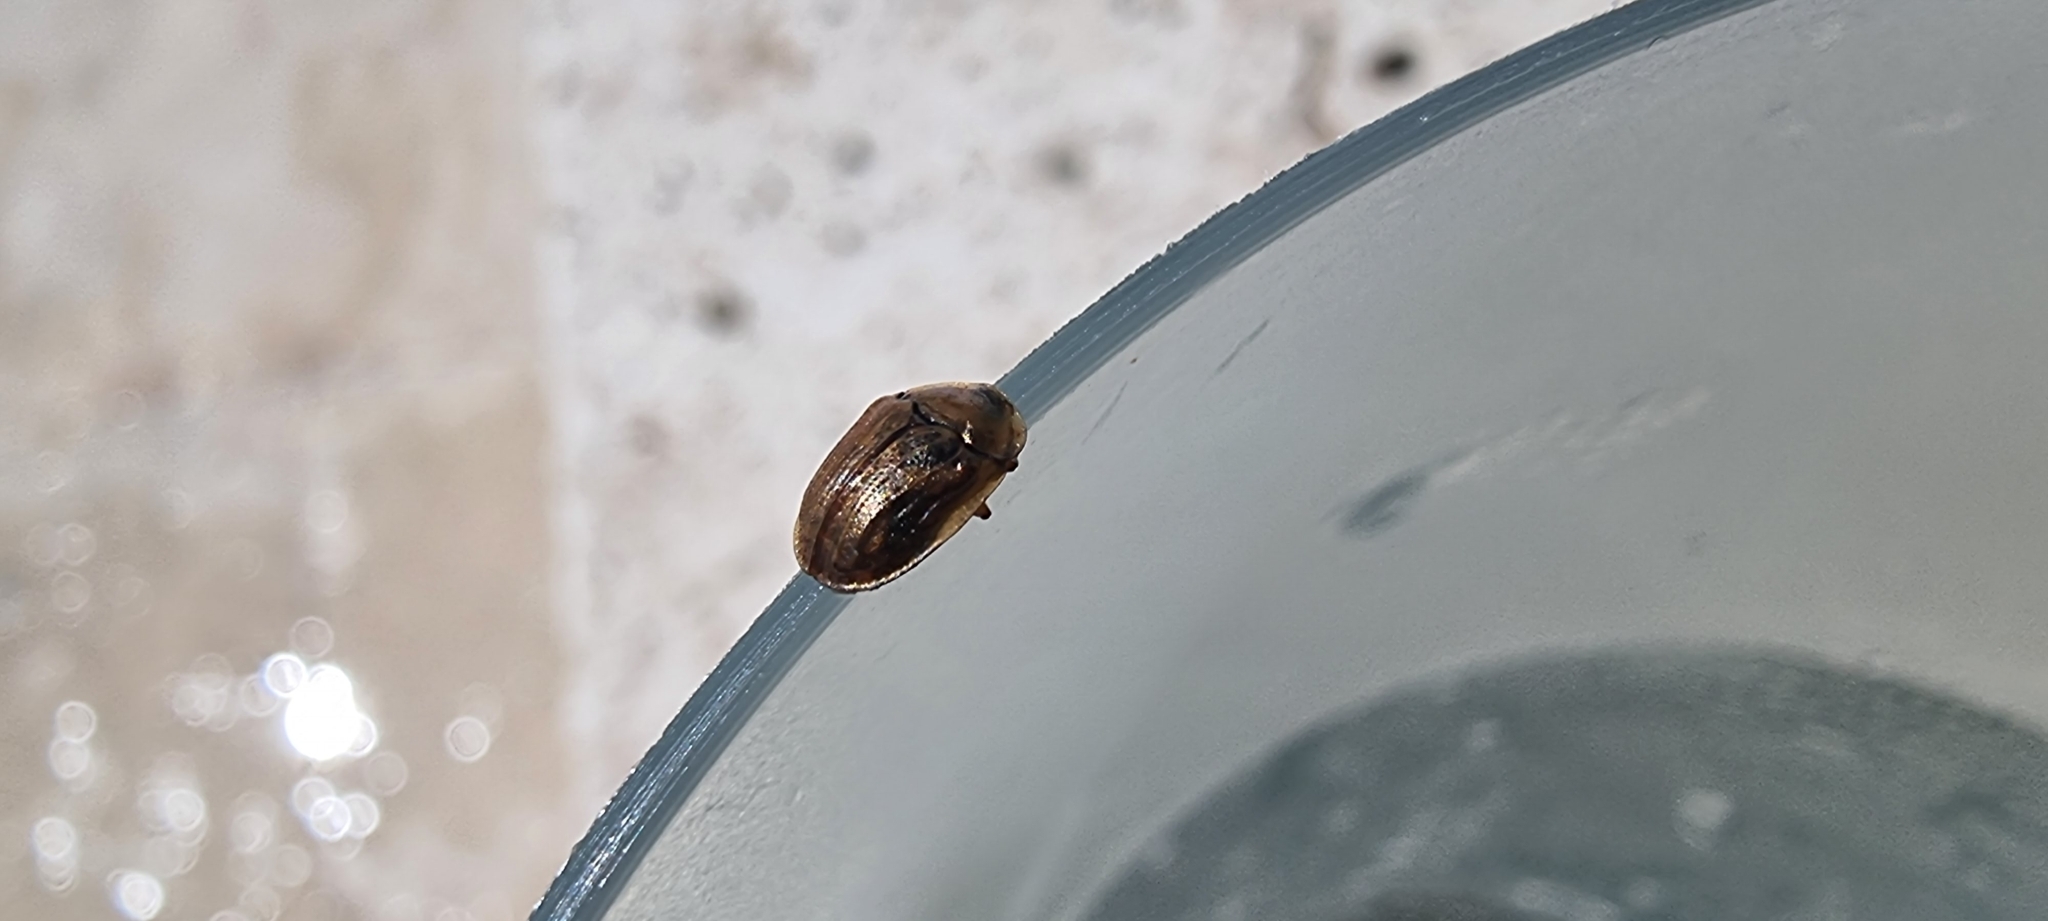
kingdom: Animalia
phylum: Arthropoda
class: Insecta
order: Coleoptera
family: Chrysomelidae
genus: Hypocassida
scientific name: Hypocassida meridionalis
